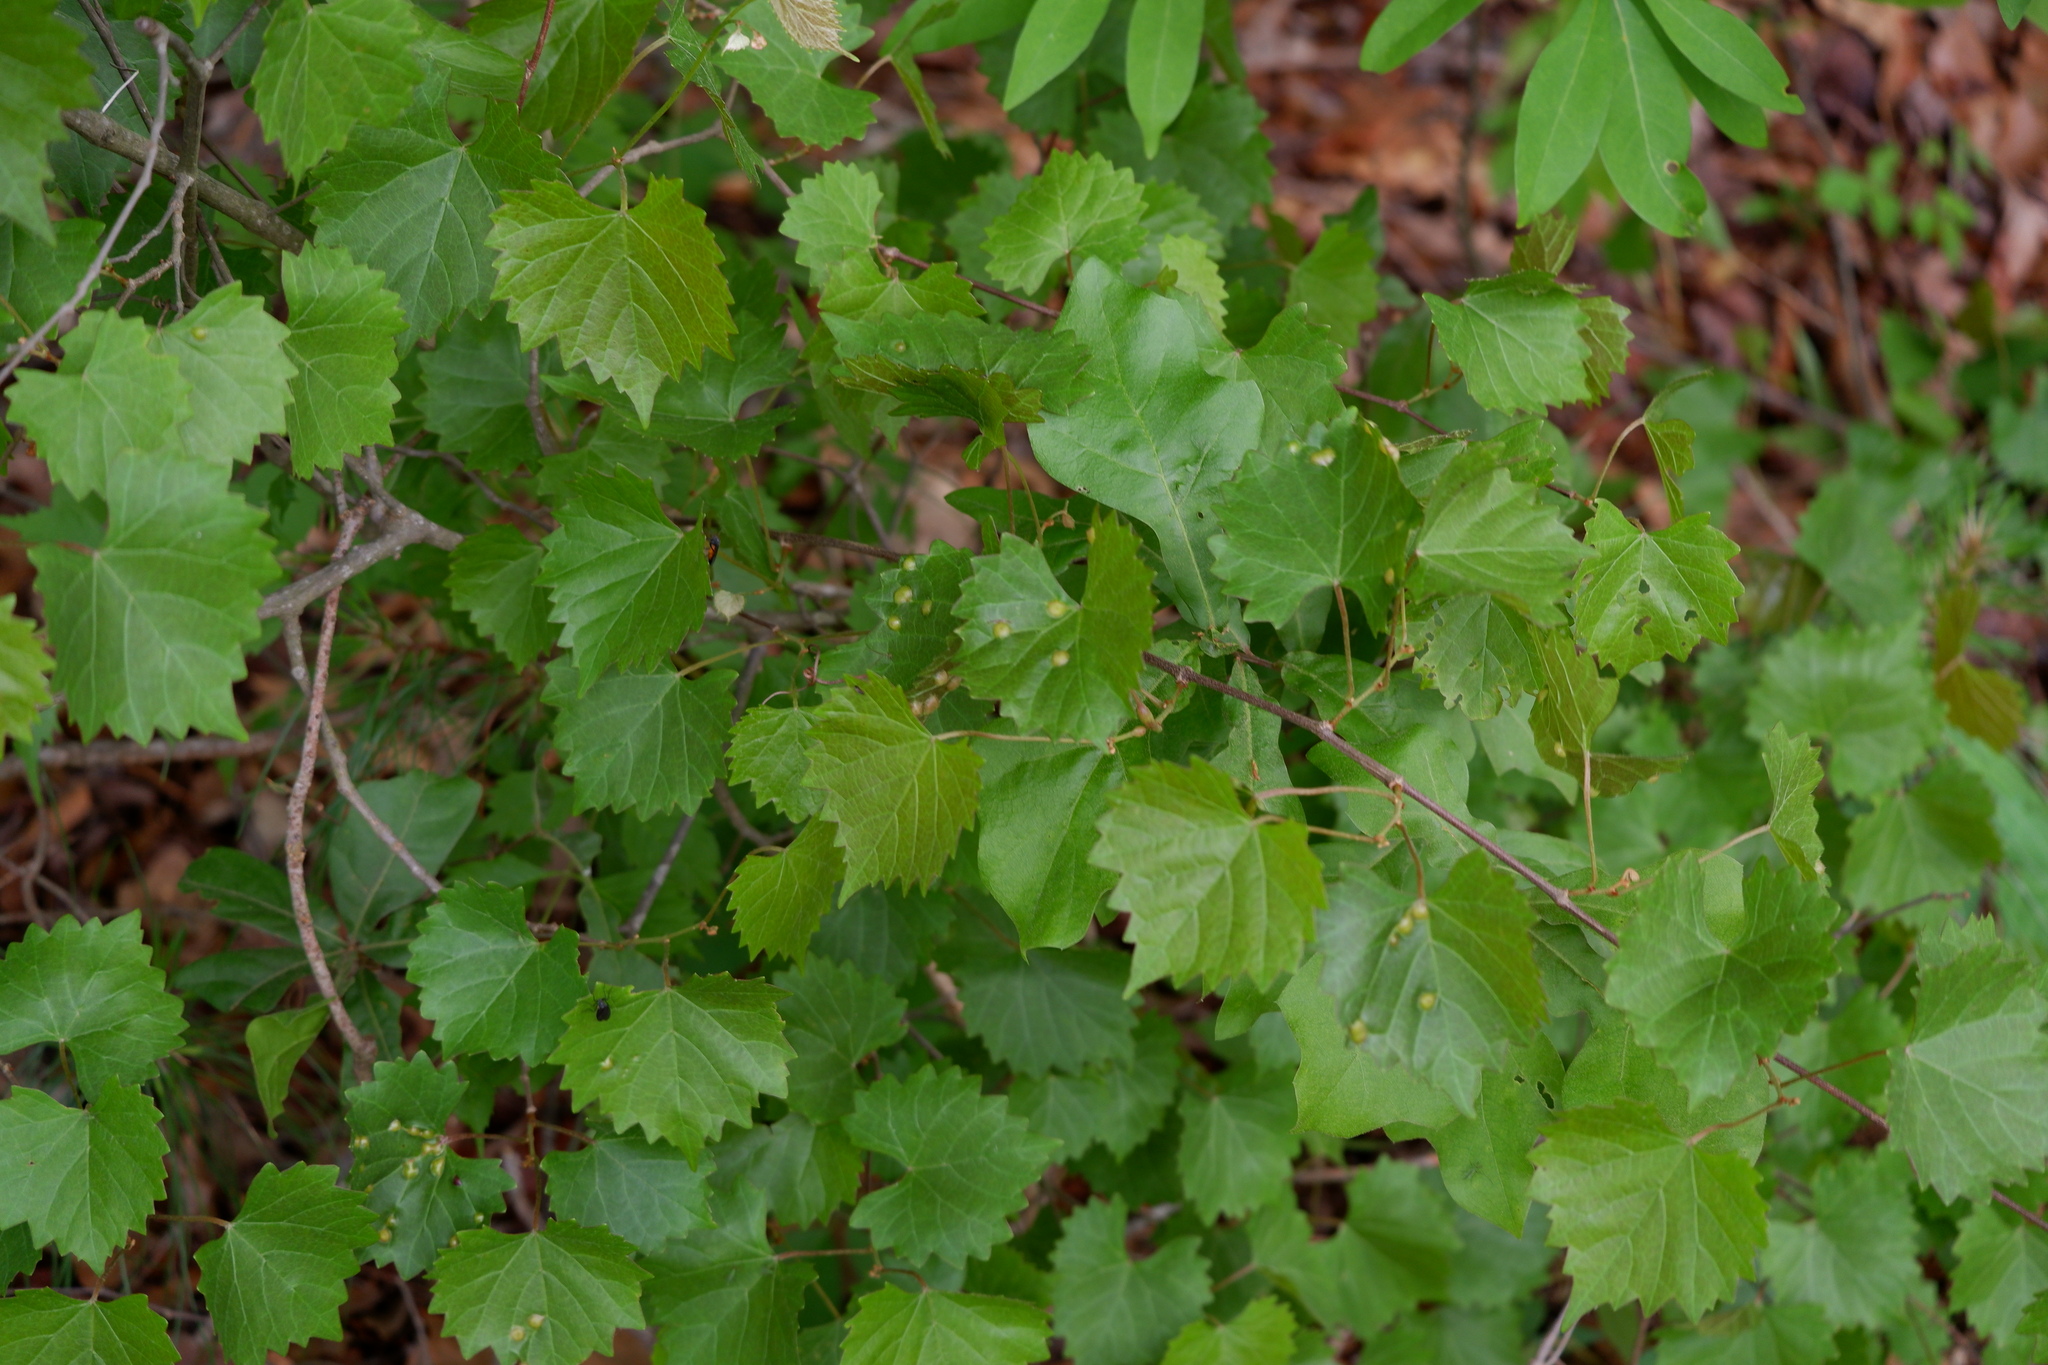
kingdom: Plantae
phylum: Tracheophyta
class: Magnoliopsida
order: Vitales
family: Vitaceae
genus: Vitis
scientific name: Vitis rotundifolia
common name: Muscadine grape
